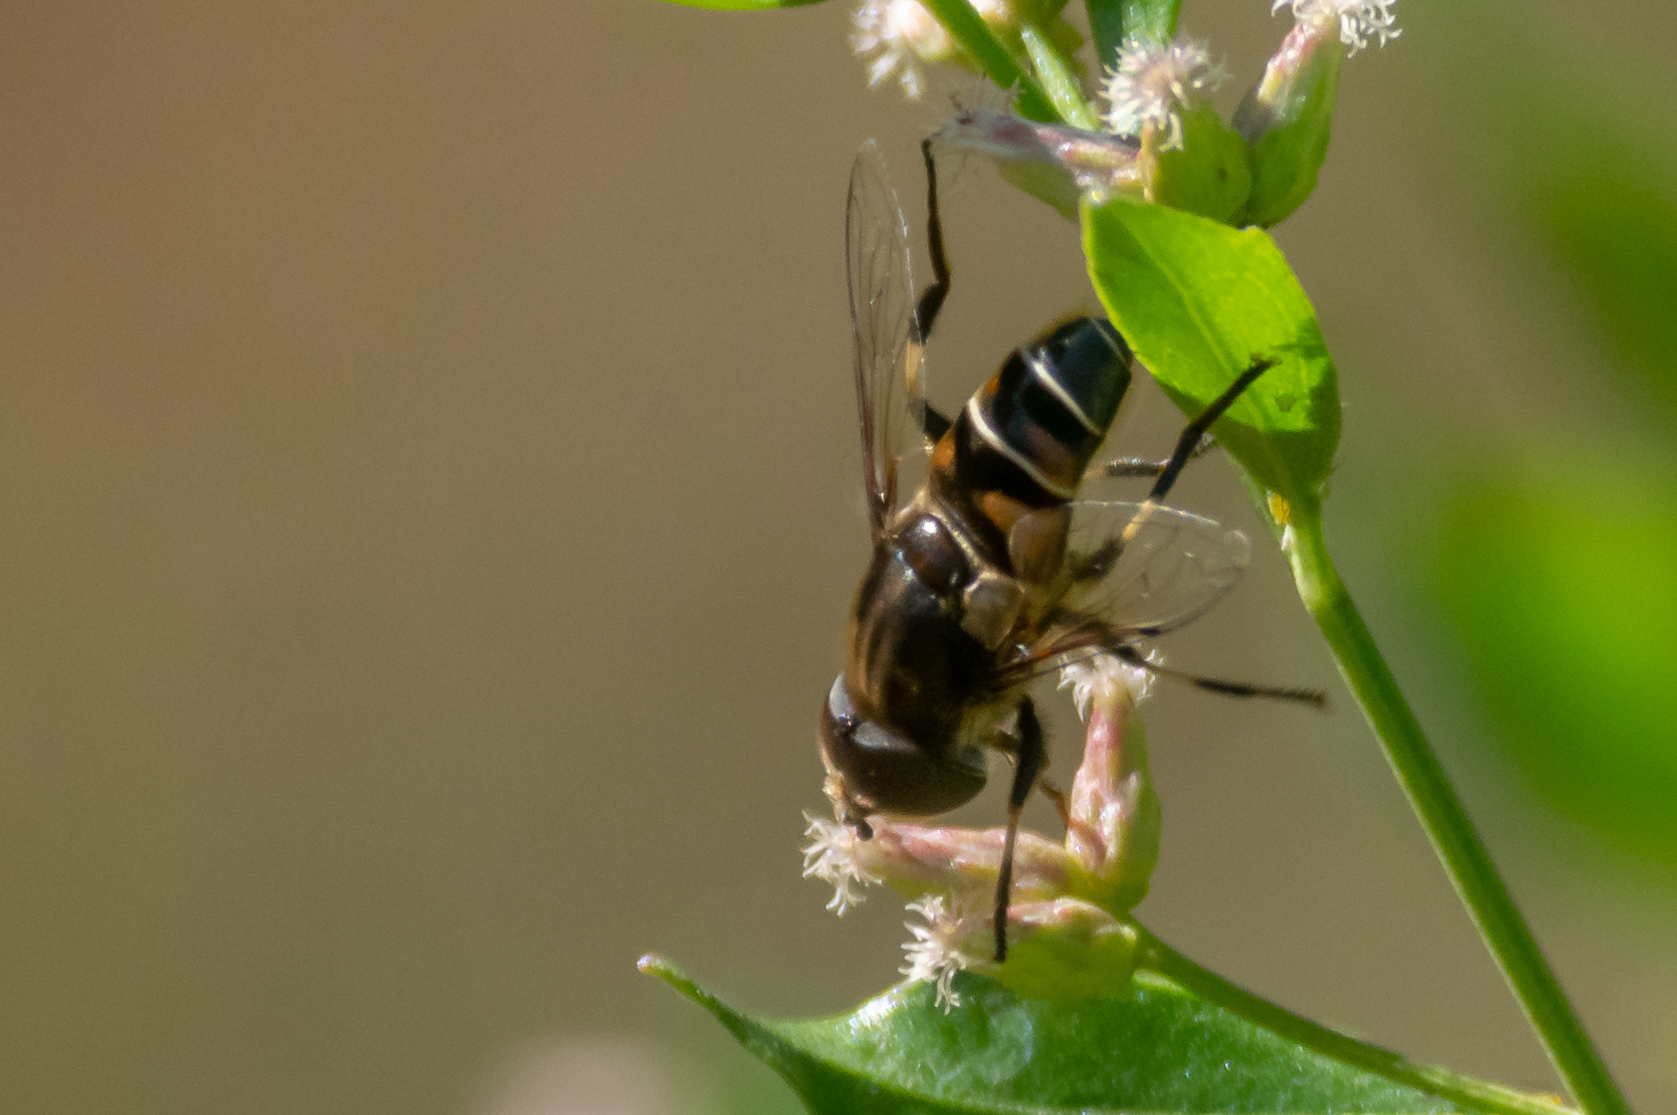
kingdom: Animalia
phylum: Arthropoda
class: Insecta
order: Diptera
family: Syrphidae
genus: Eristalis
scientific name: Eristalis dimidiata
